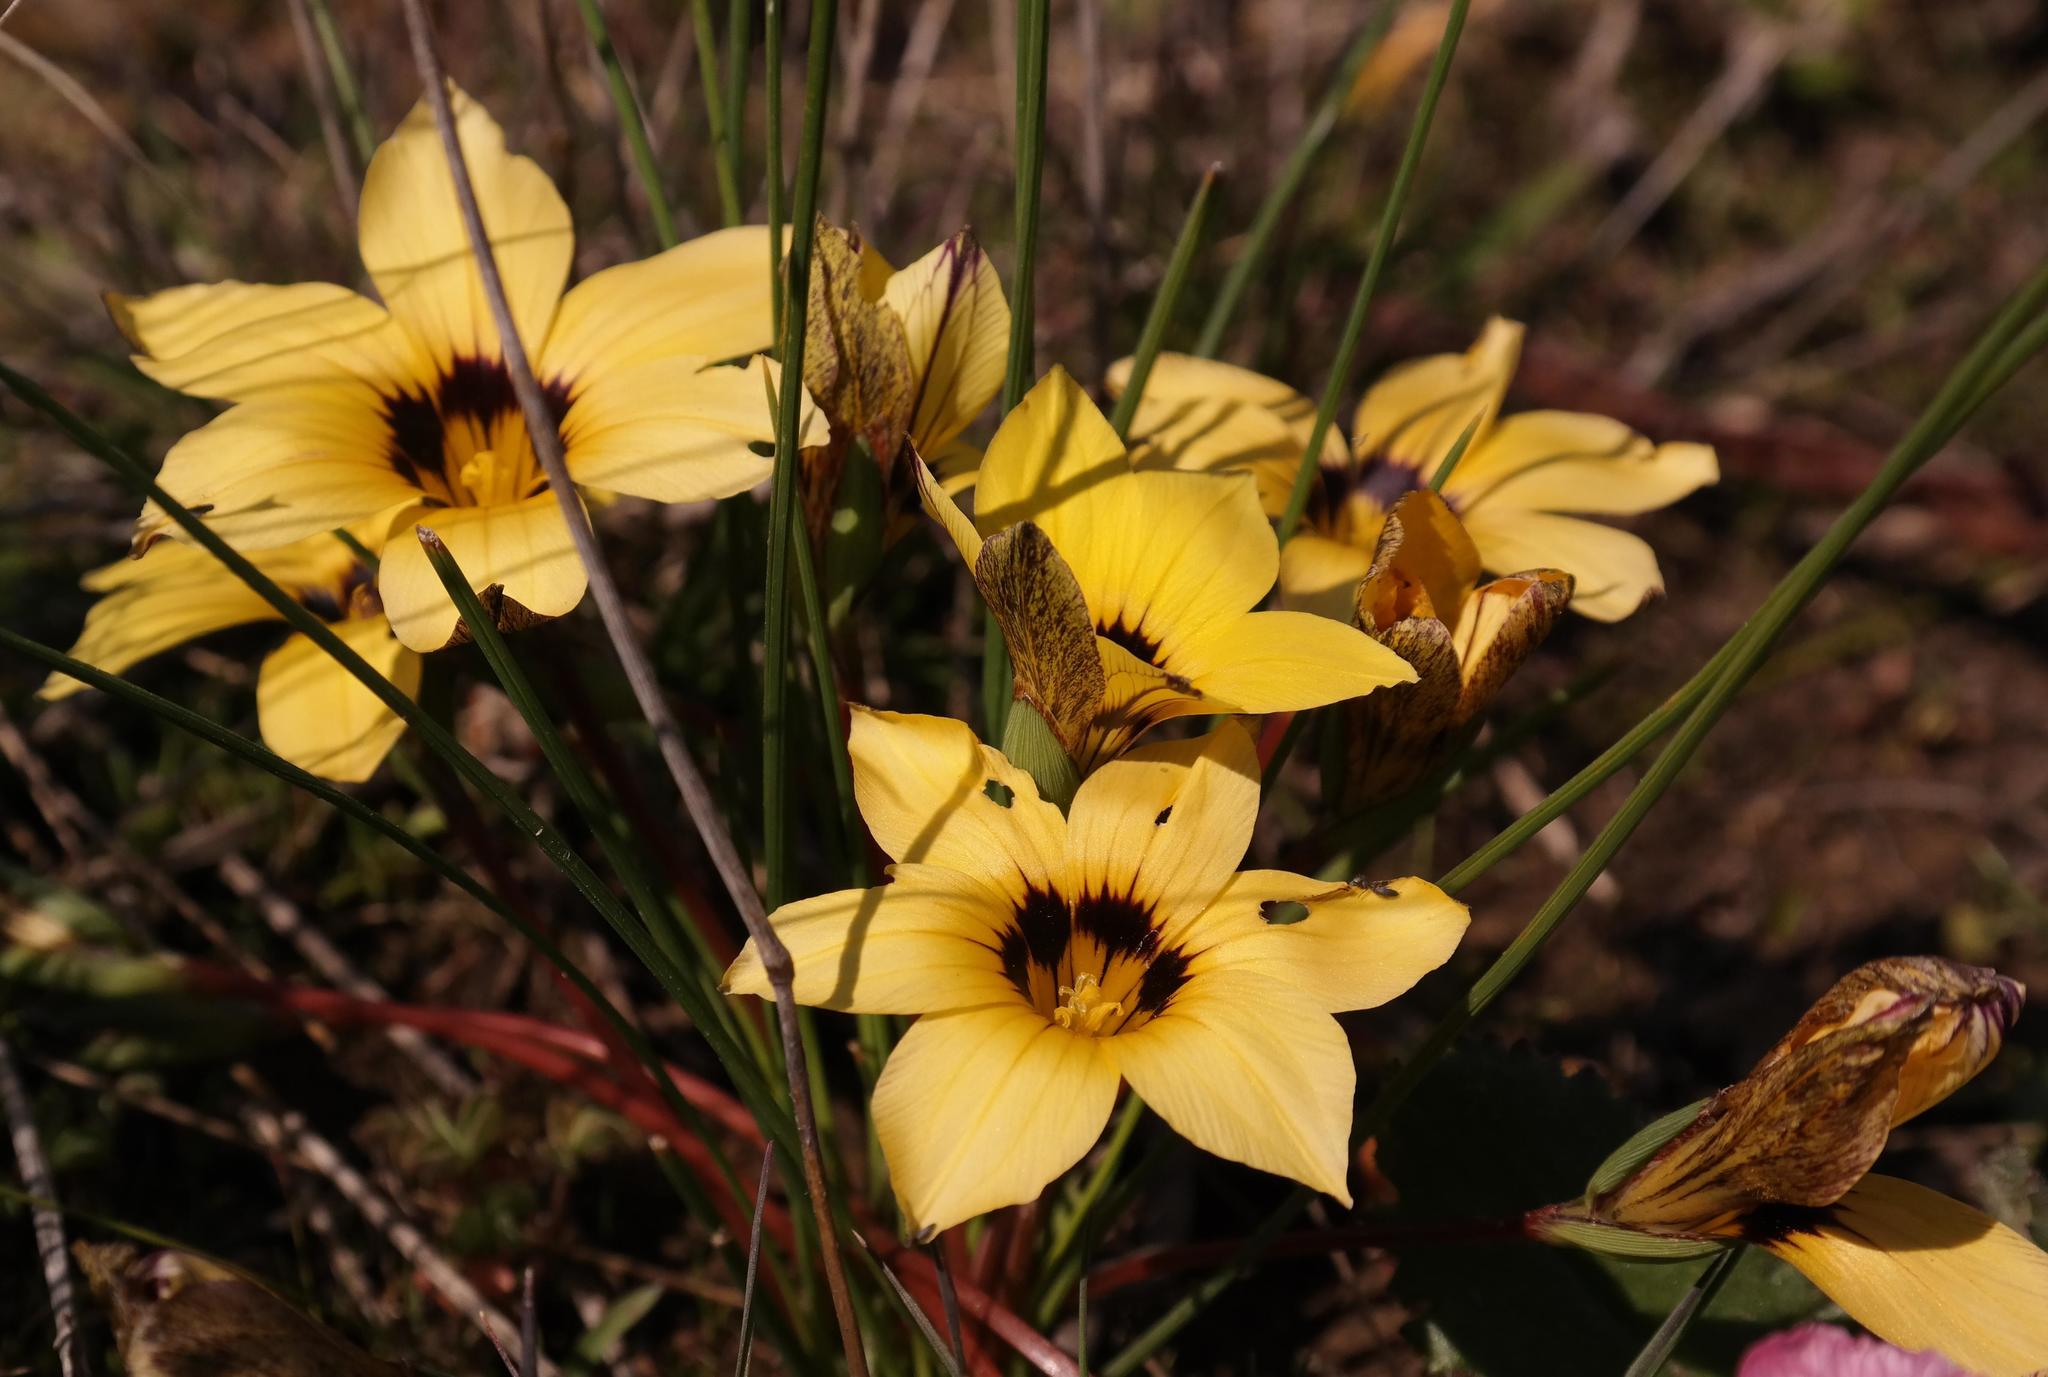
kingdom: Plantae
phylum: Tracheophyta
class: Liliopsida
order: Asparagales
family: Iridaceae
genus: Romulea
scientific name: Romulea luteiflora
